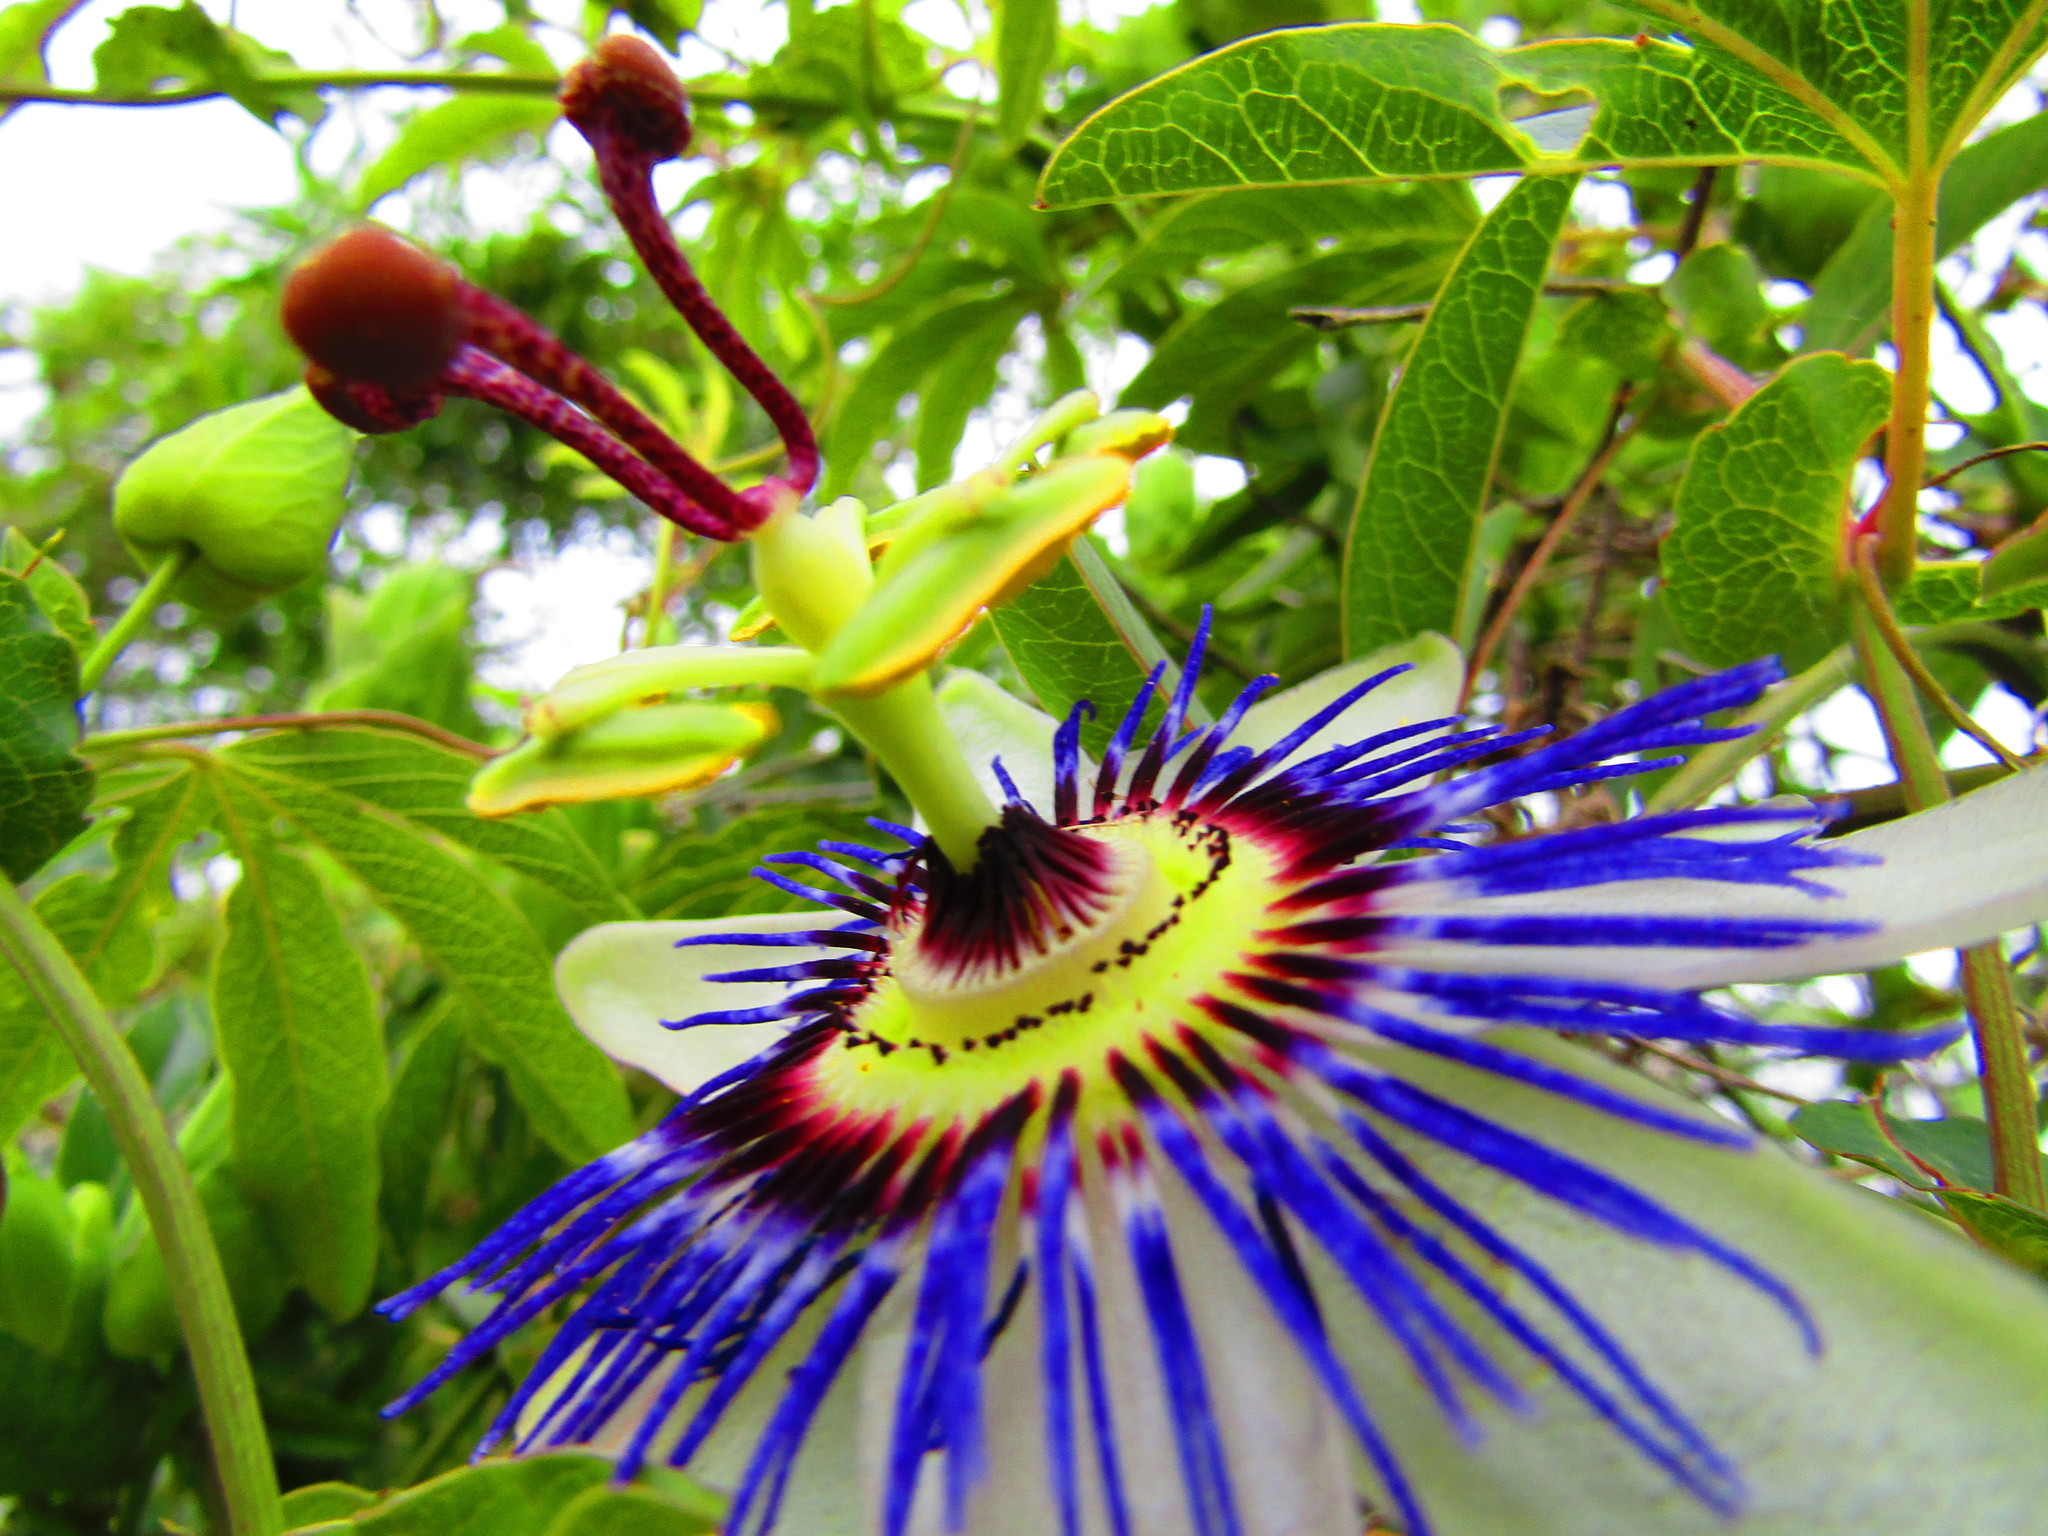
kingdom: Plantae
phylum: Tracheophyta
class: Magnoliopsida
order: Malpighiales
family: Passifloraceae
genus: Passiflora
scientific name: Passiflora caerulea
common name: Blue passionflower
